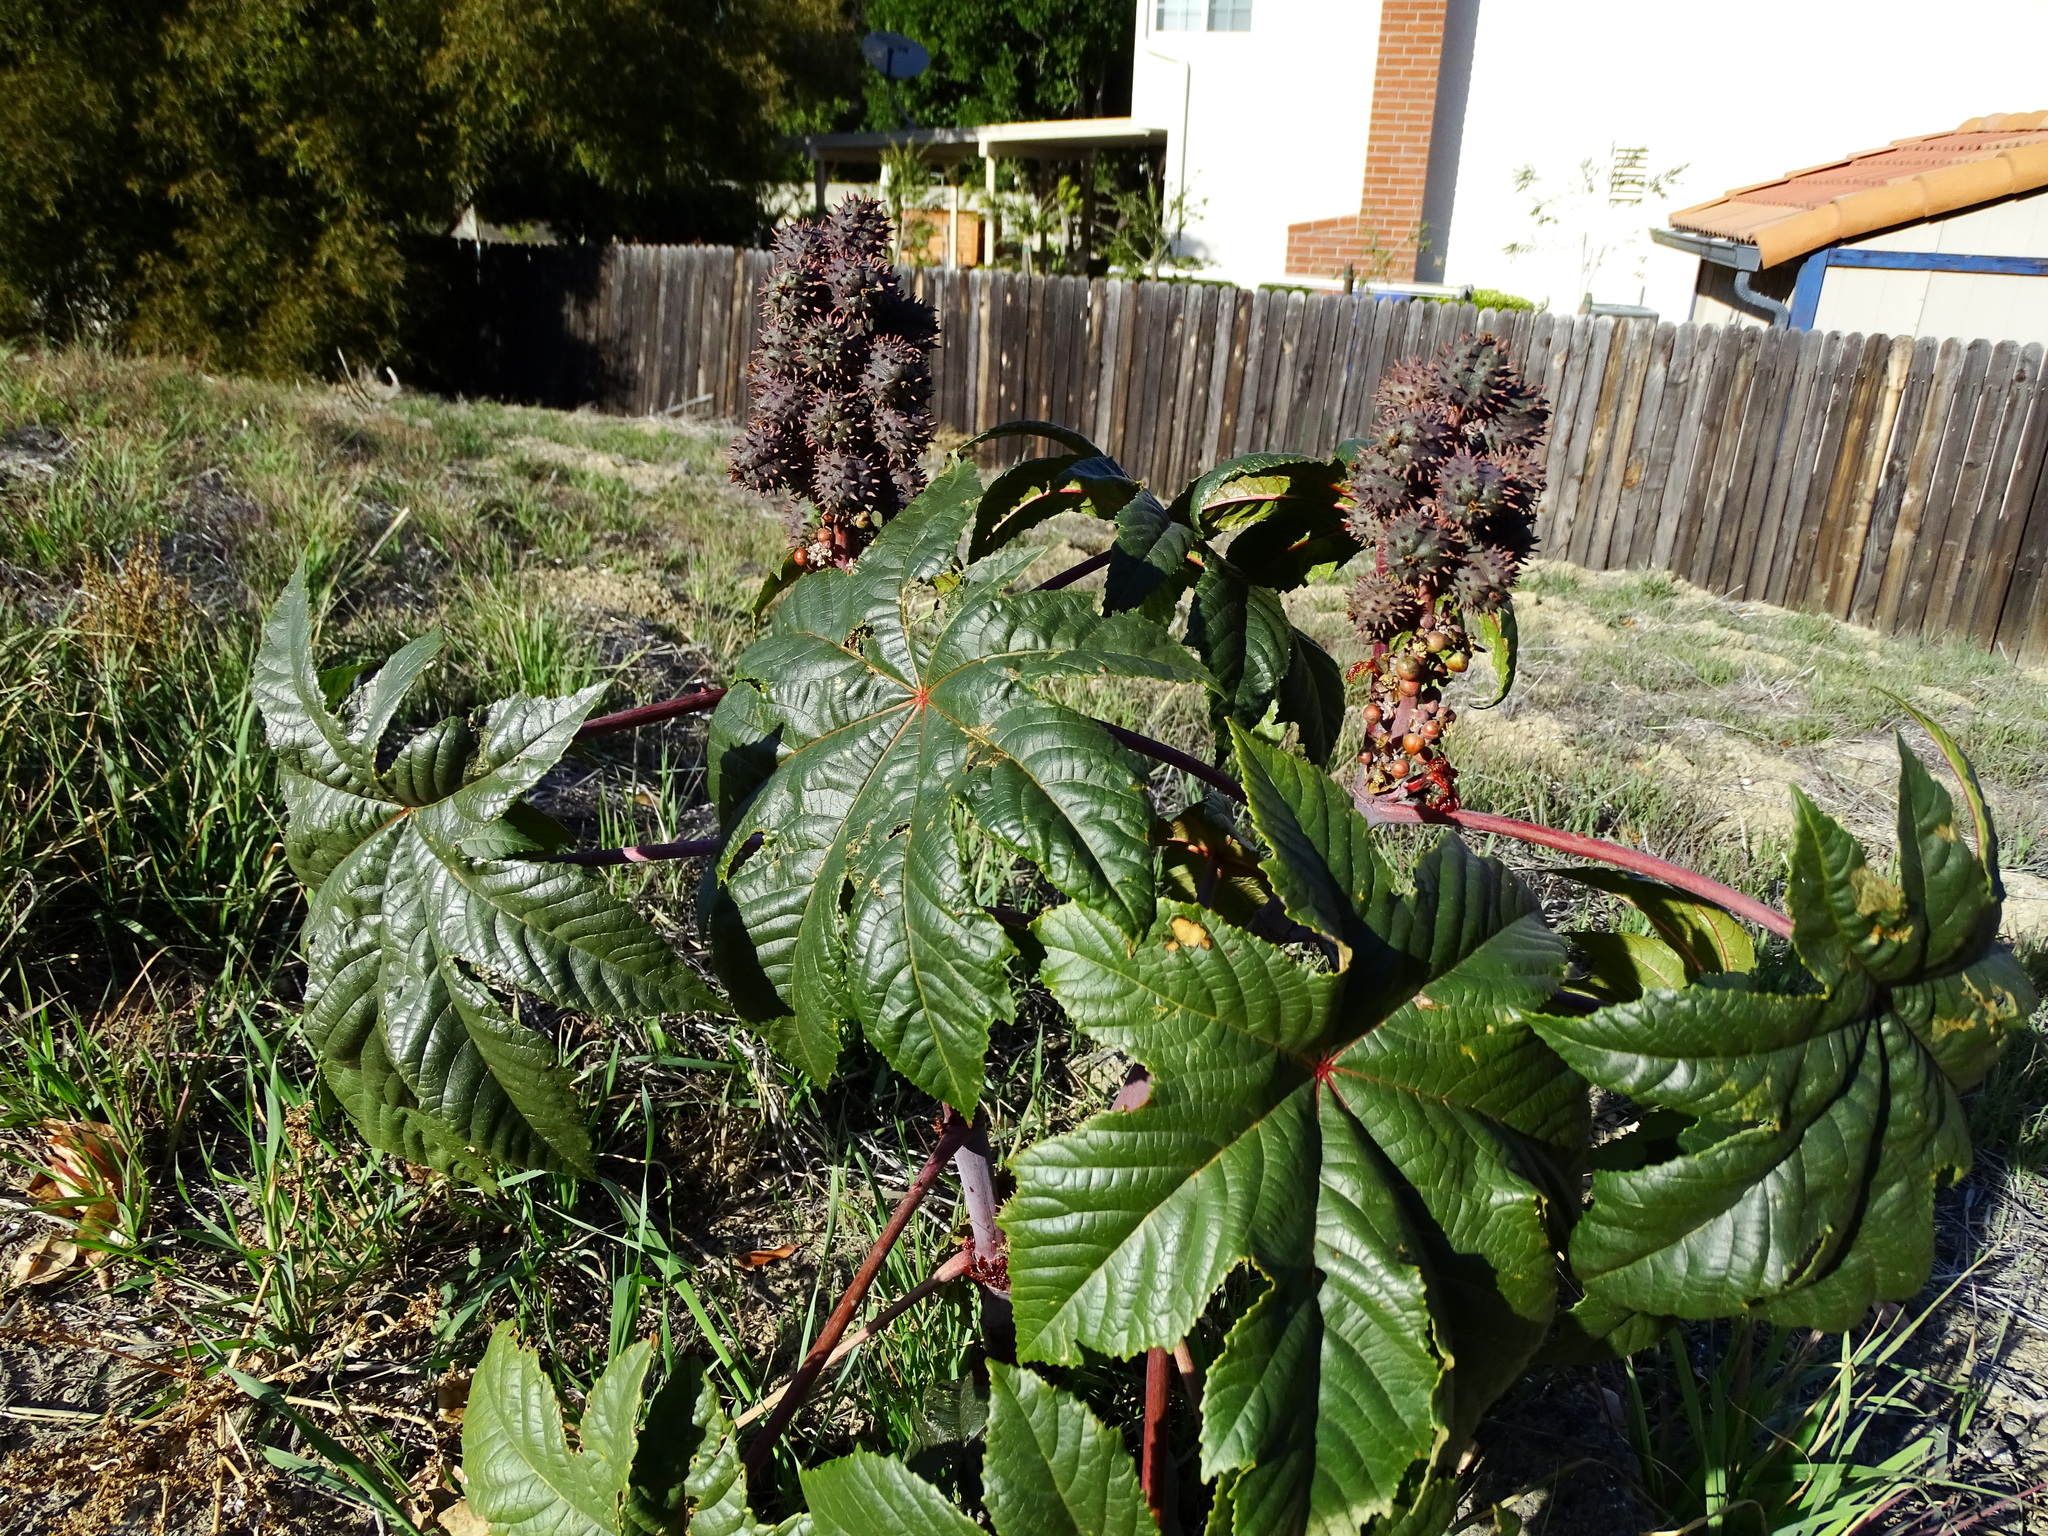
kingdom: Plantae
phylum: Tracheophyta
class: Magnoliopsida
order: Malpighiales
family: Euphorbiaceae
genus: Ricinus
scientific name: Ricinus communis
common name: Castor-oil-plant
